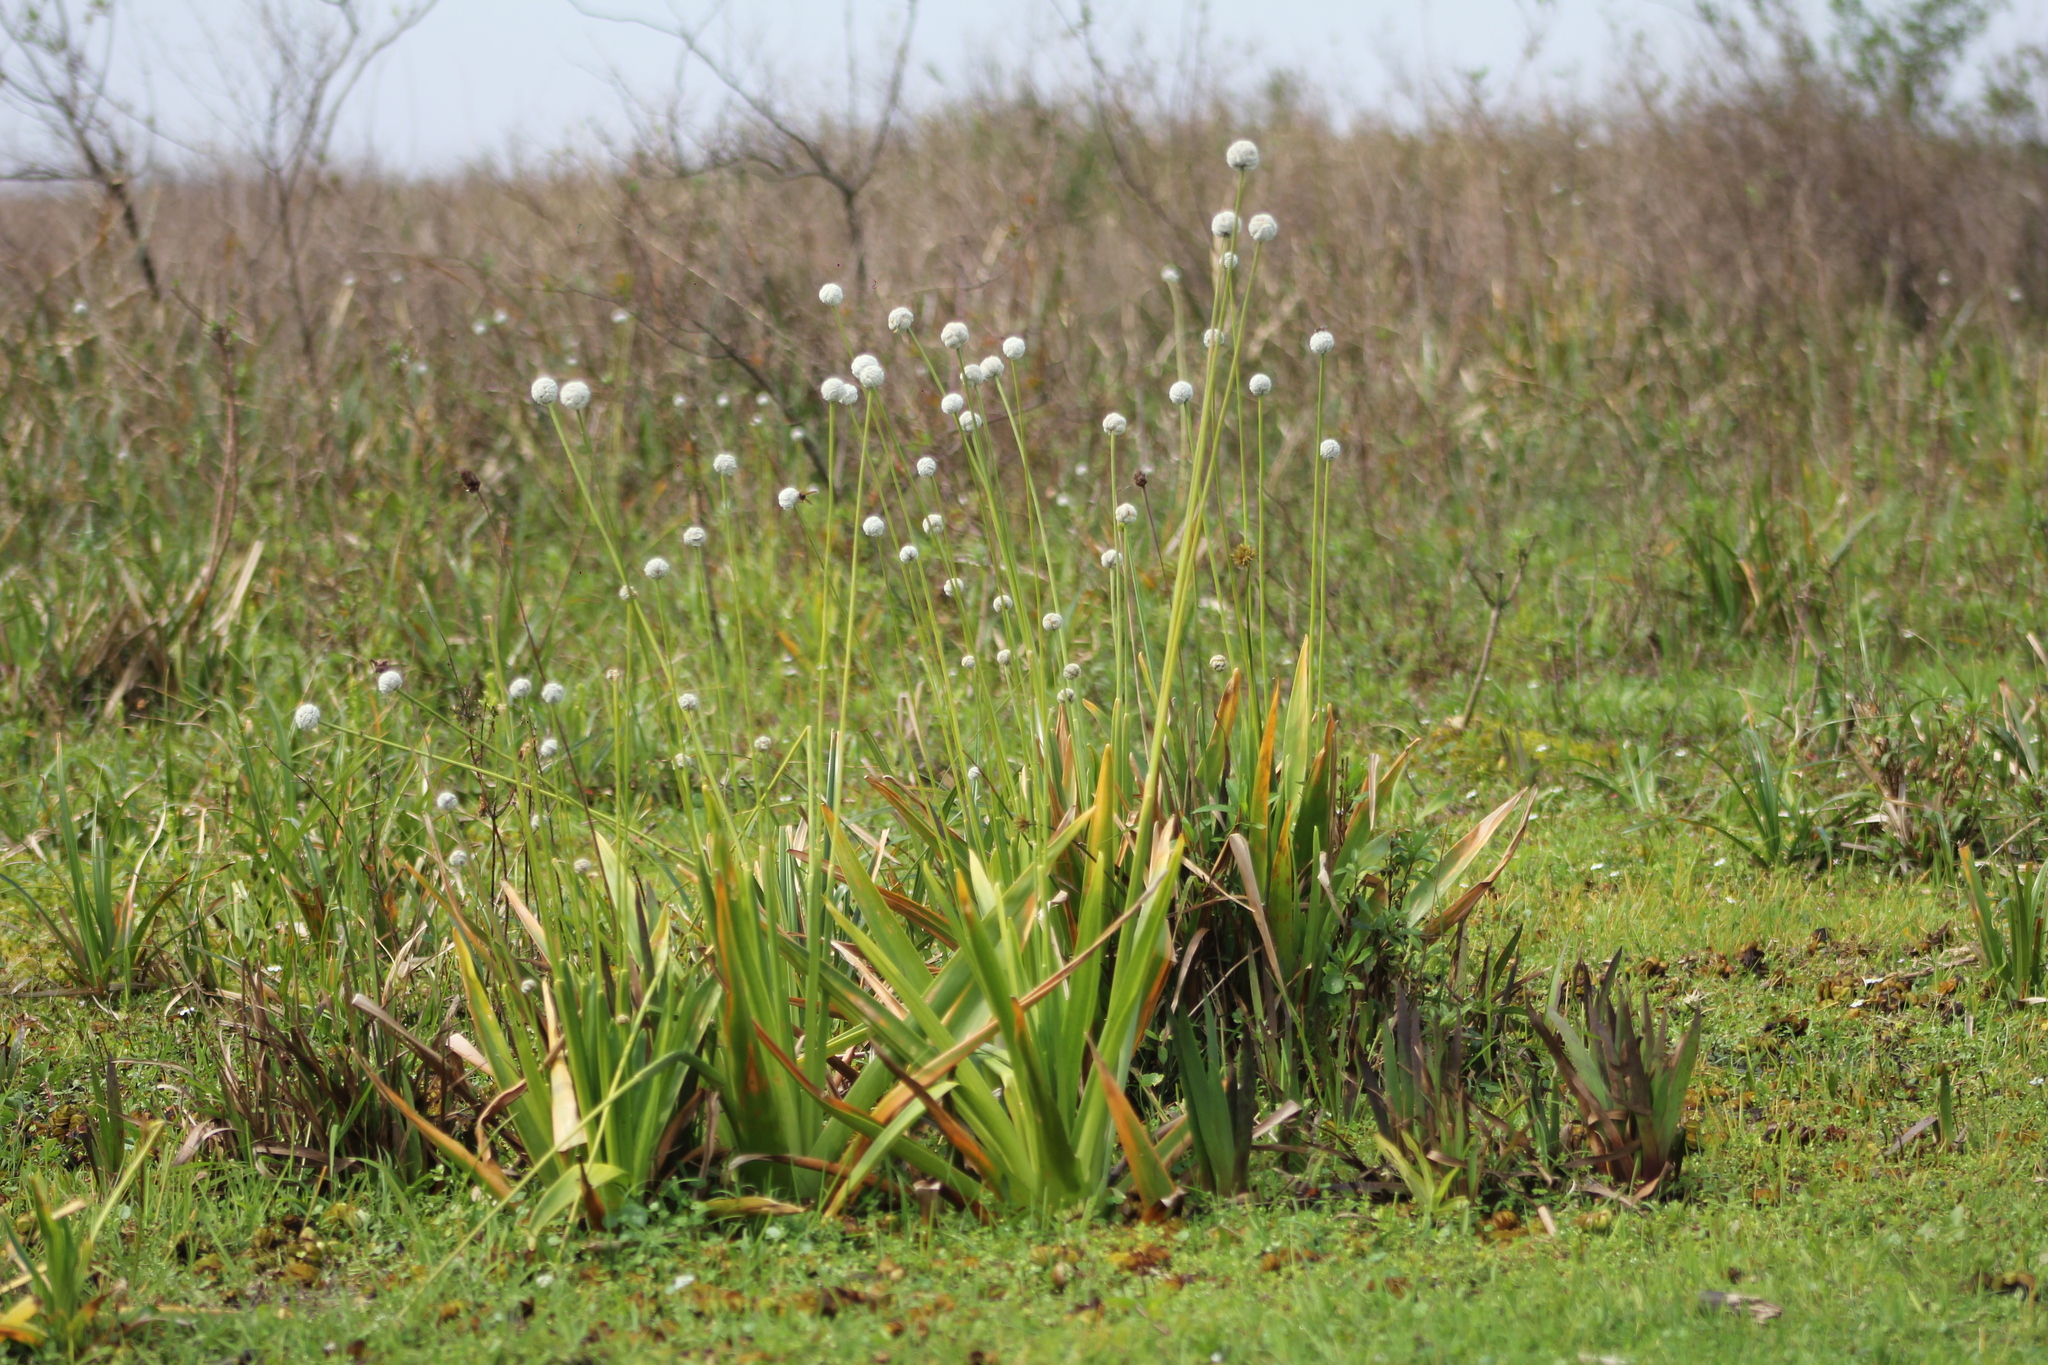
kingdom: Plantae
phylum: Tracheophyta
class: Liliopsida
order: Poales
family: Eriocaulaceae
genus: Eriocaulon
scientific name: Eriocaulon magnum
